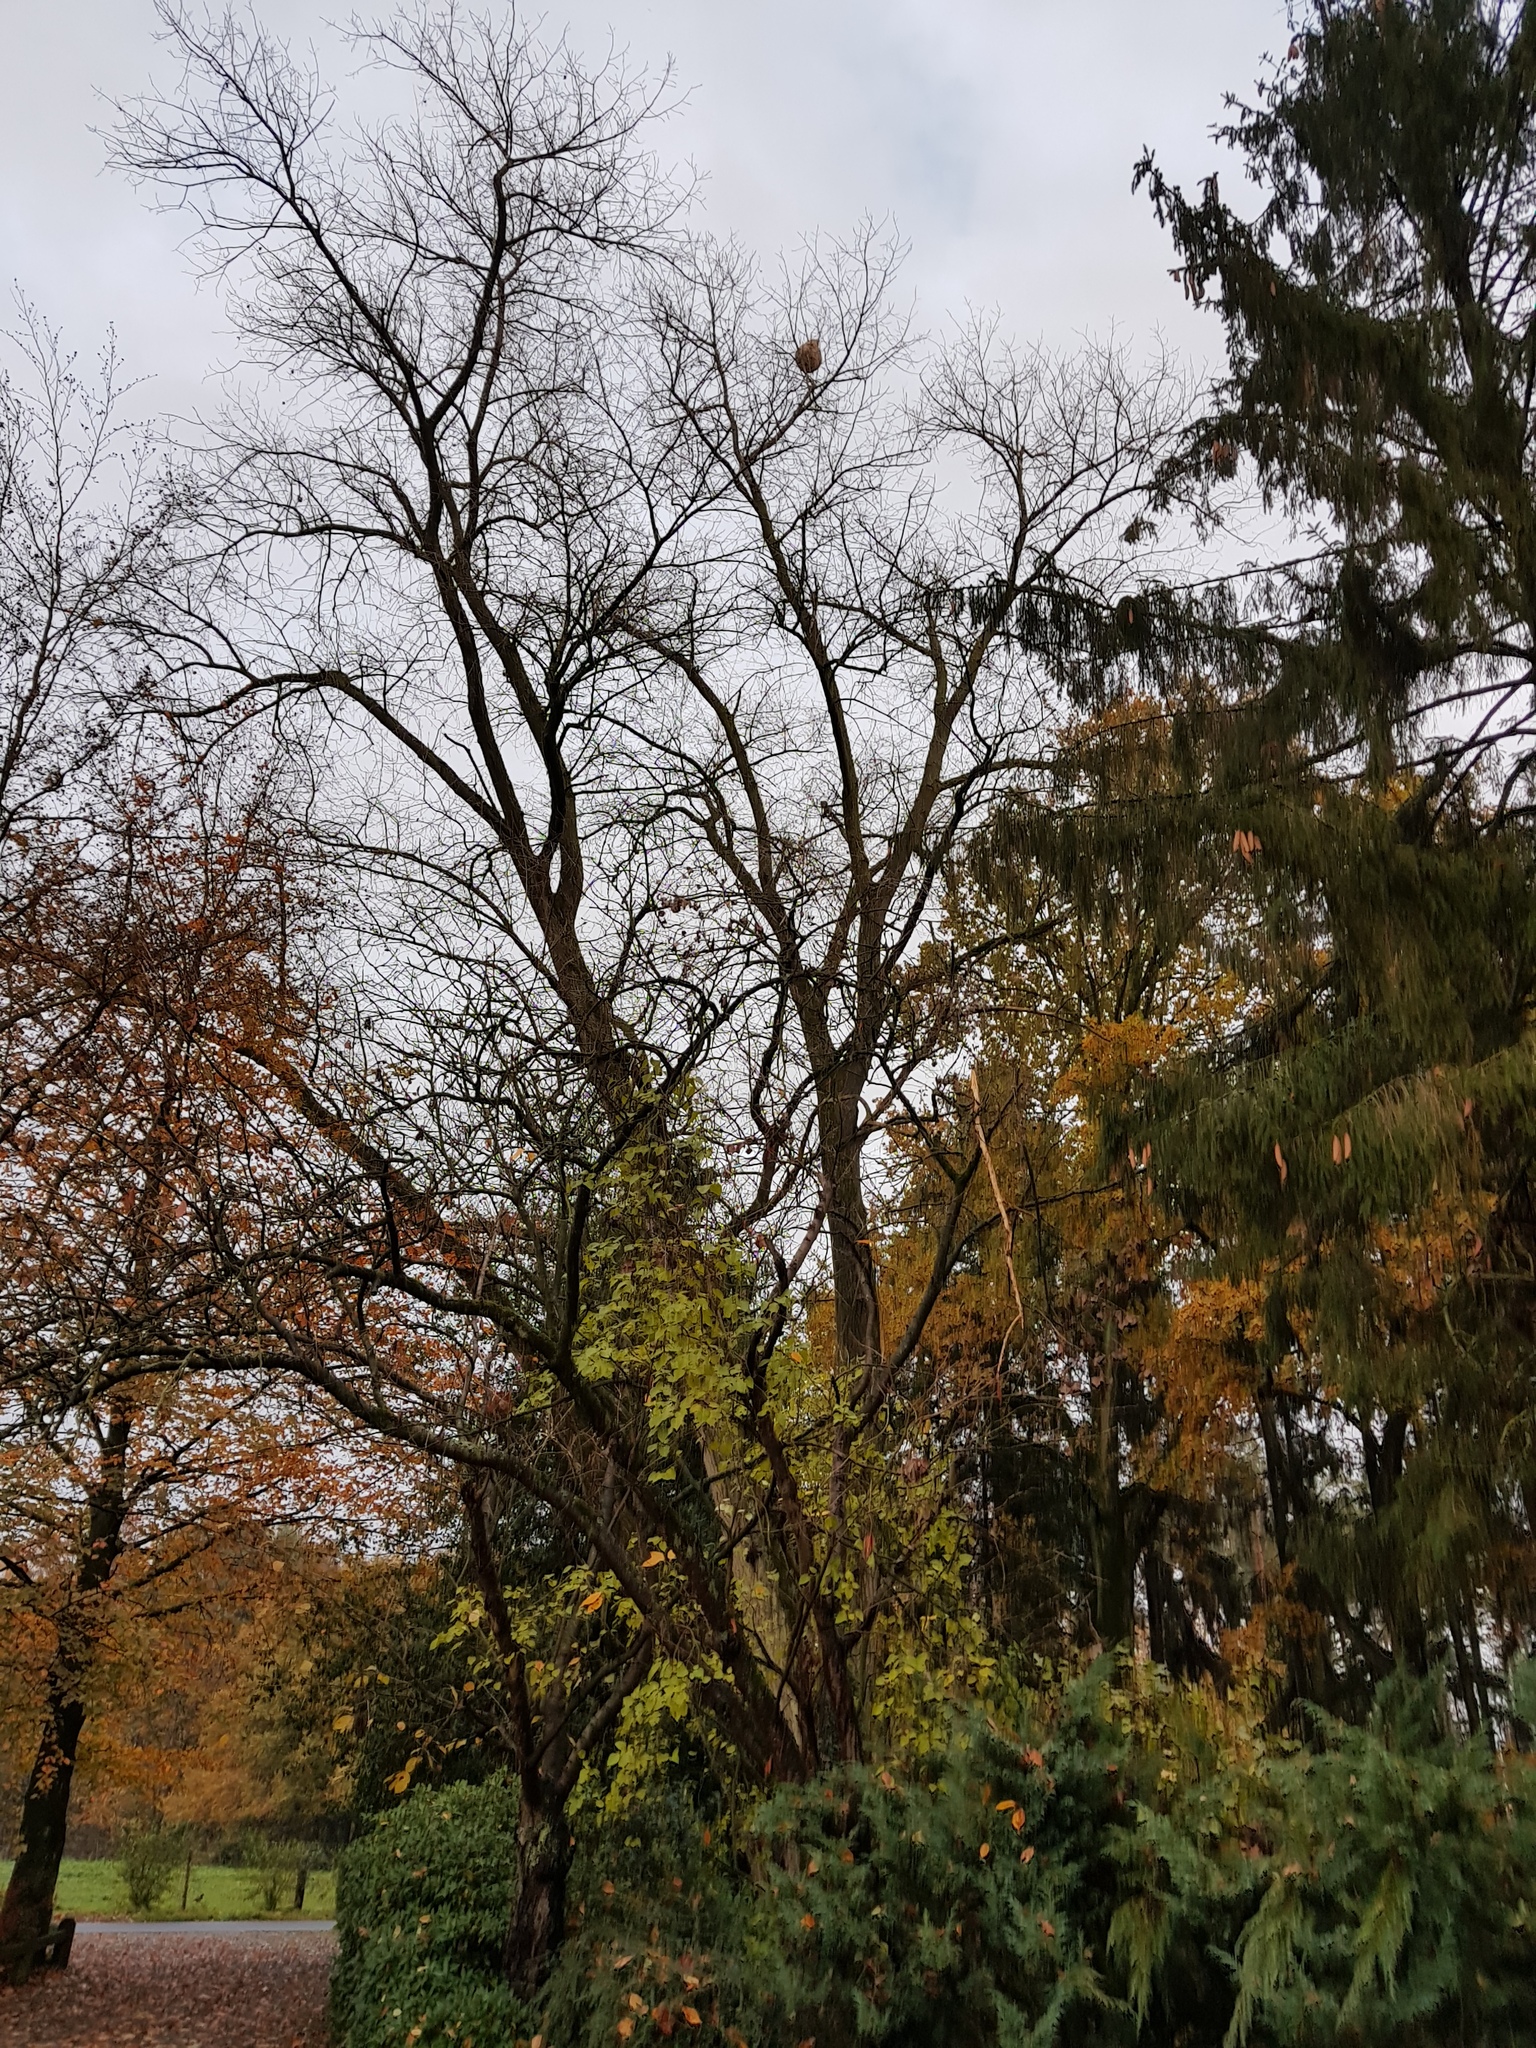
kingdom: Animalia
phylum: Arthropoda
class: Insecta
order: Hymenoptera
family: Vespidae
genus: Vespa
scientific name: Vespa velutina
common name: Asian hornet
